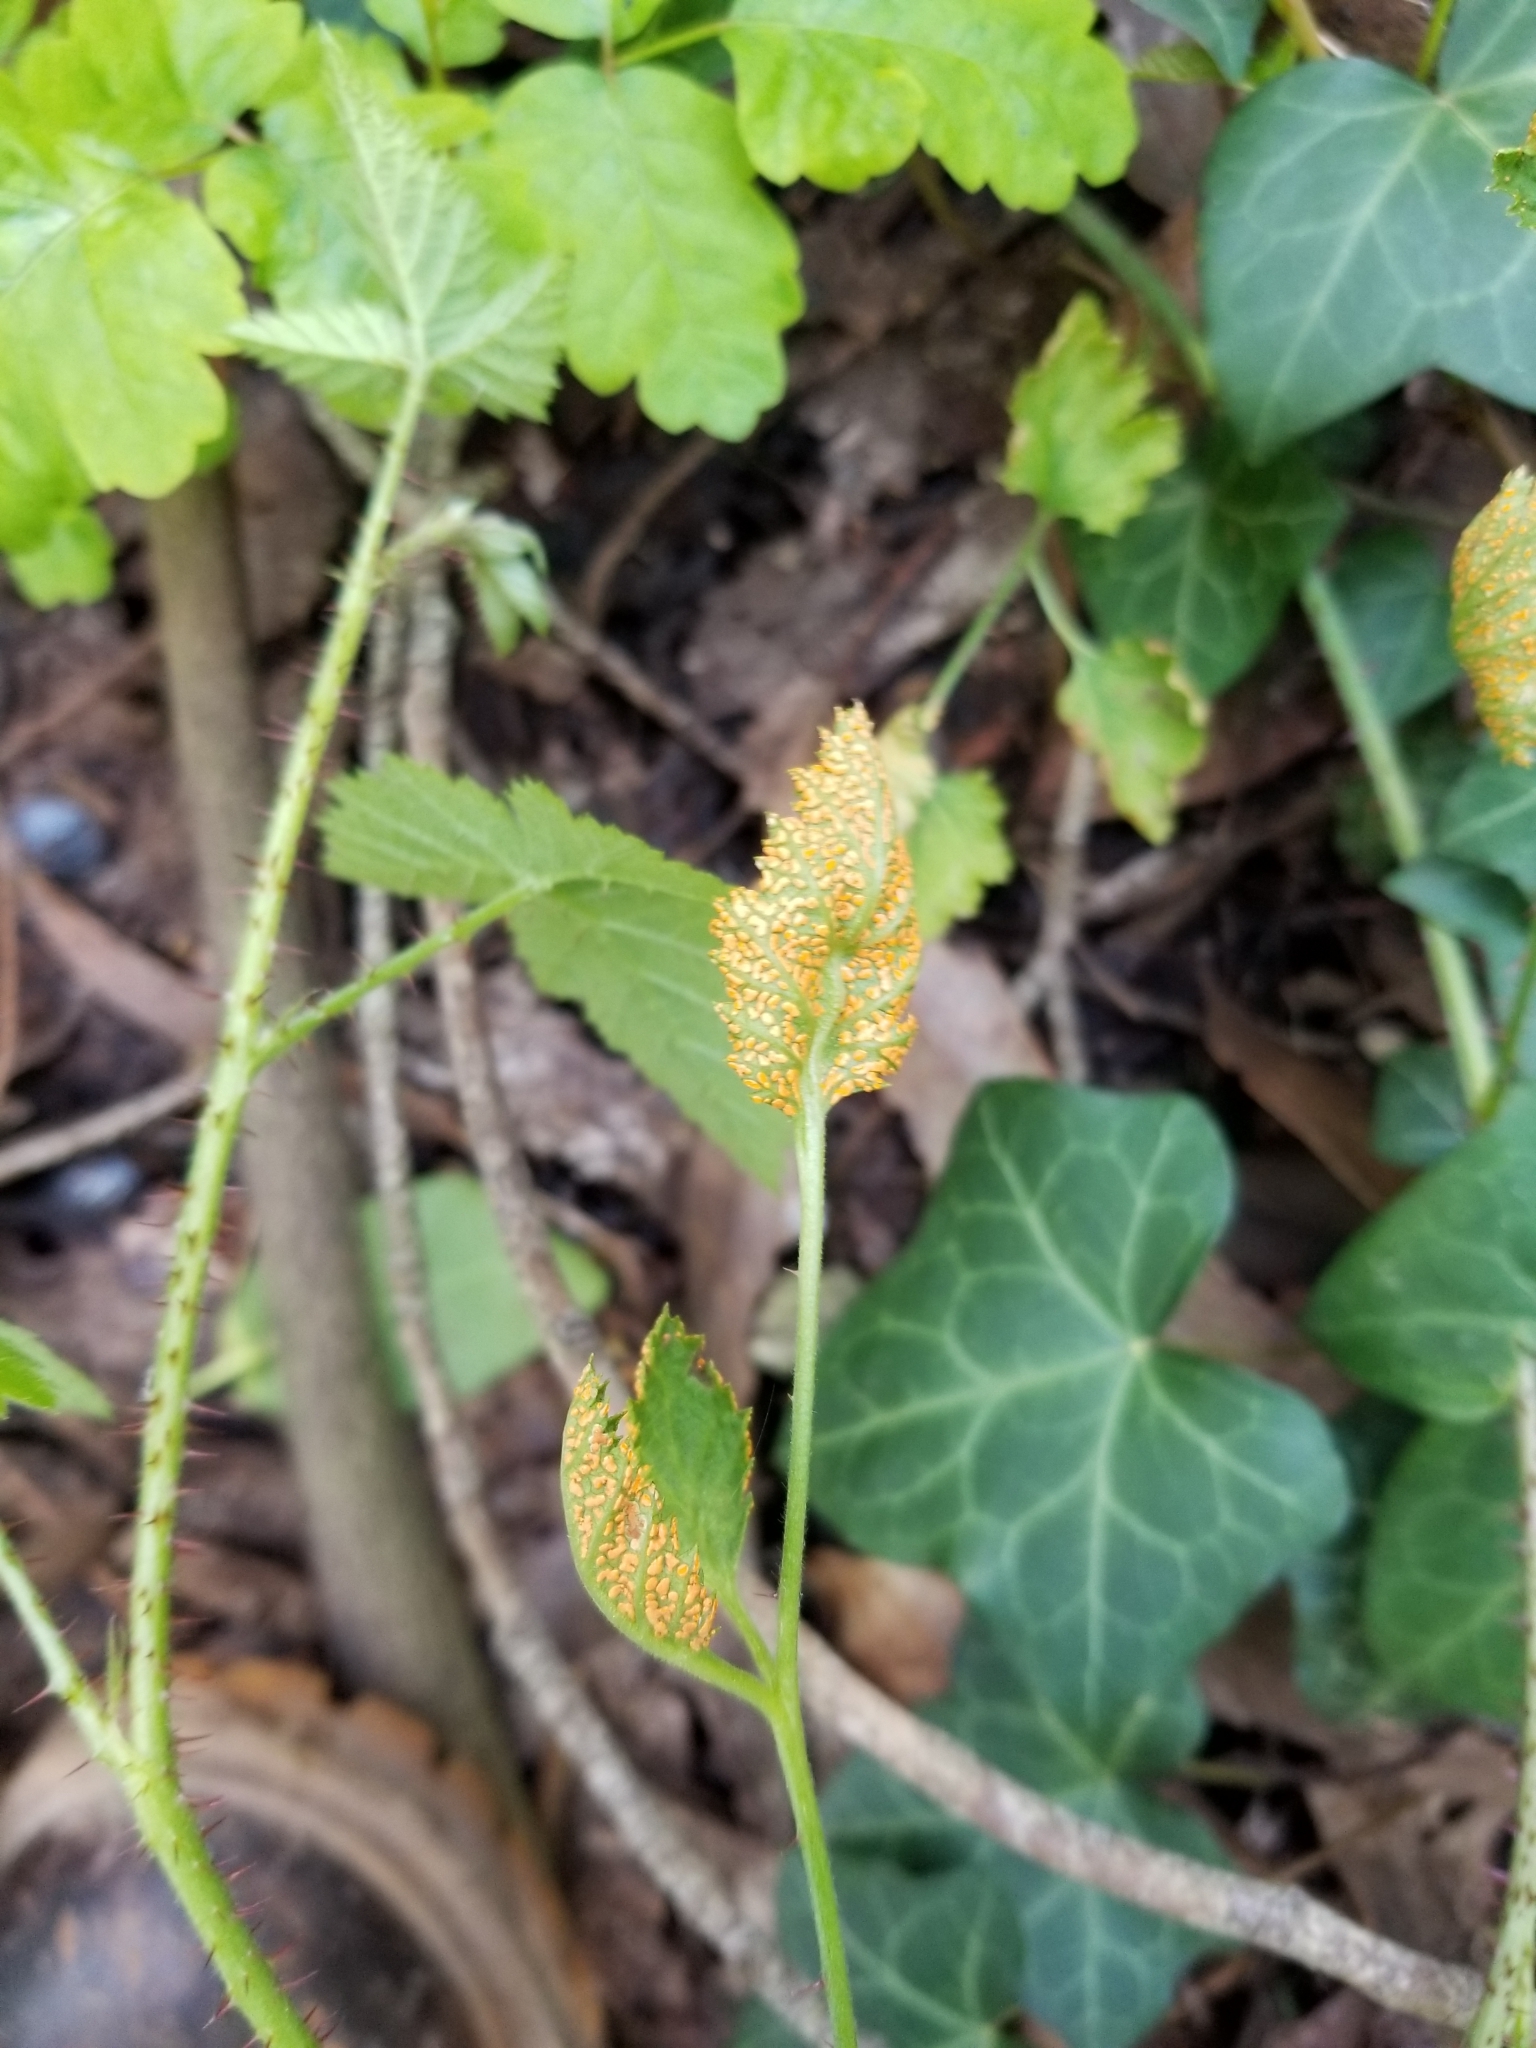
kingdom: Plantae
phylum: Tracheophyta
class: Magnoliopsida
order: Rosales
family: Rosaceae
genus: Rubus
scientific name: Rubus ursinus
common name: Pacific blackberry
